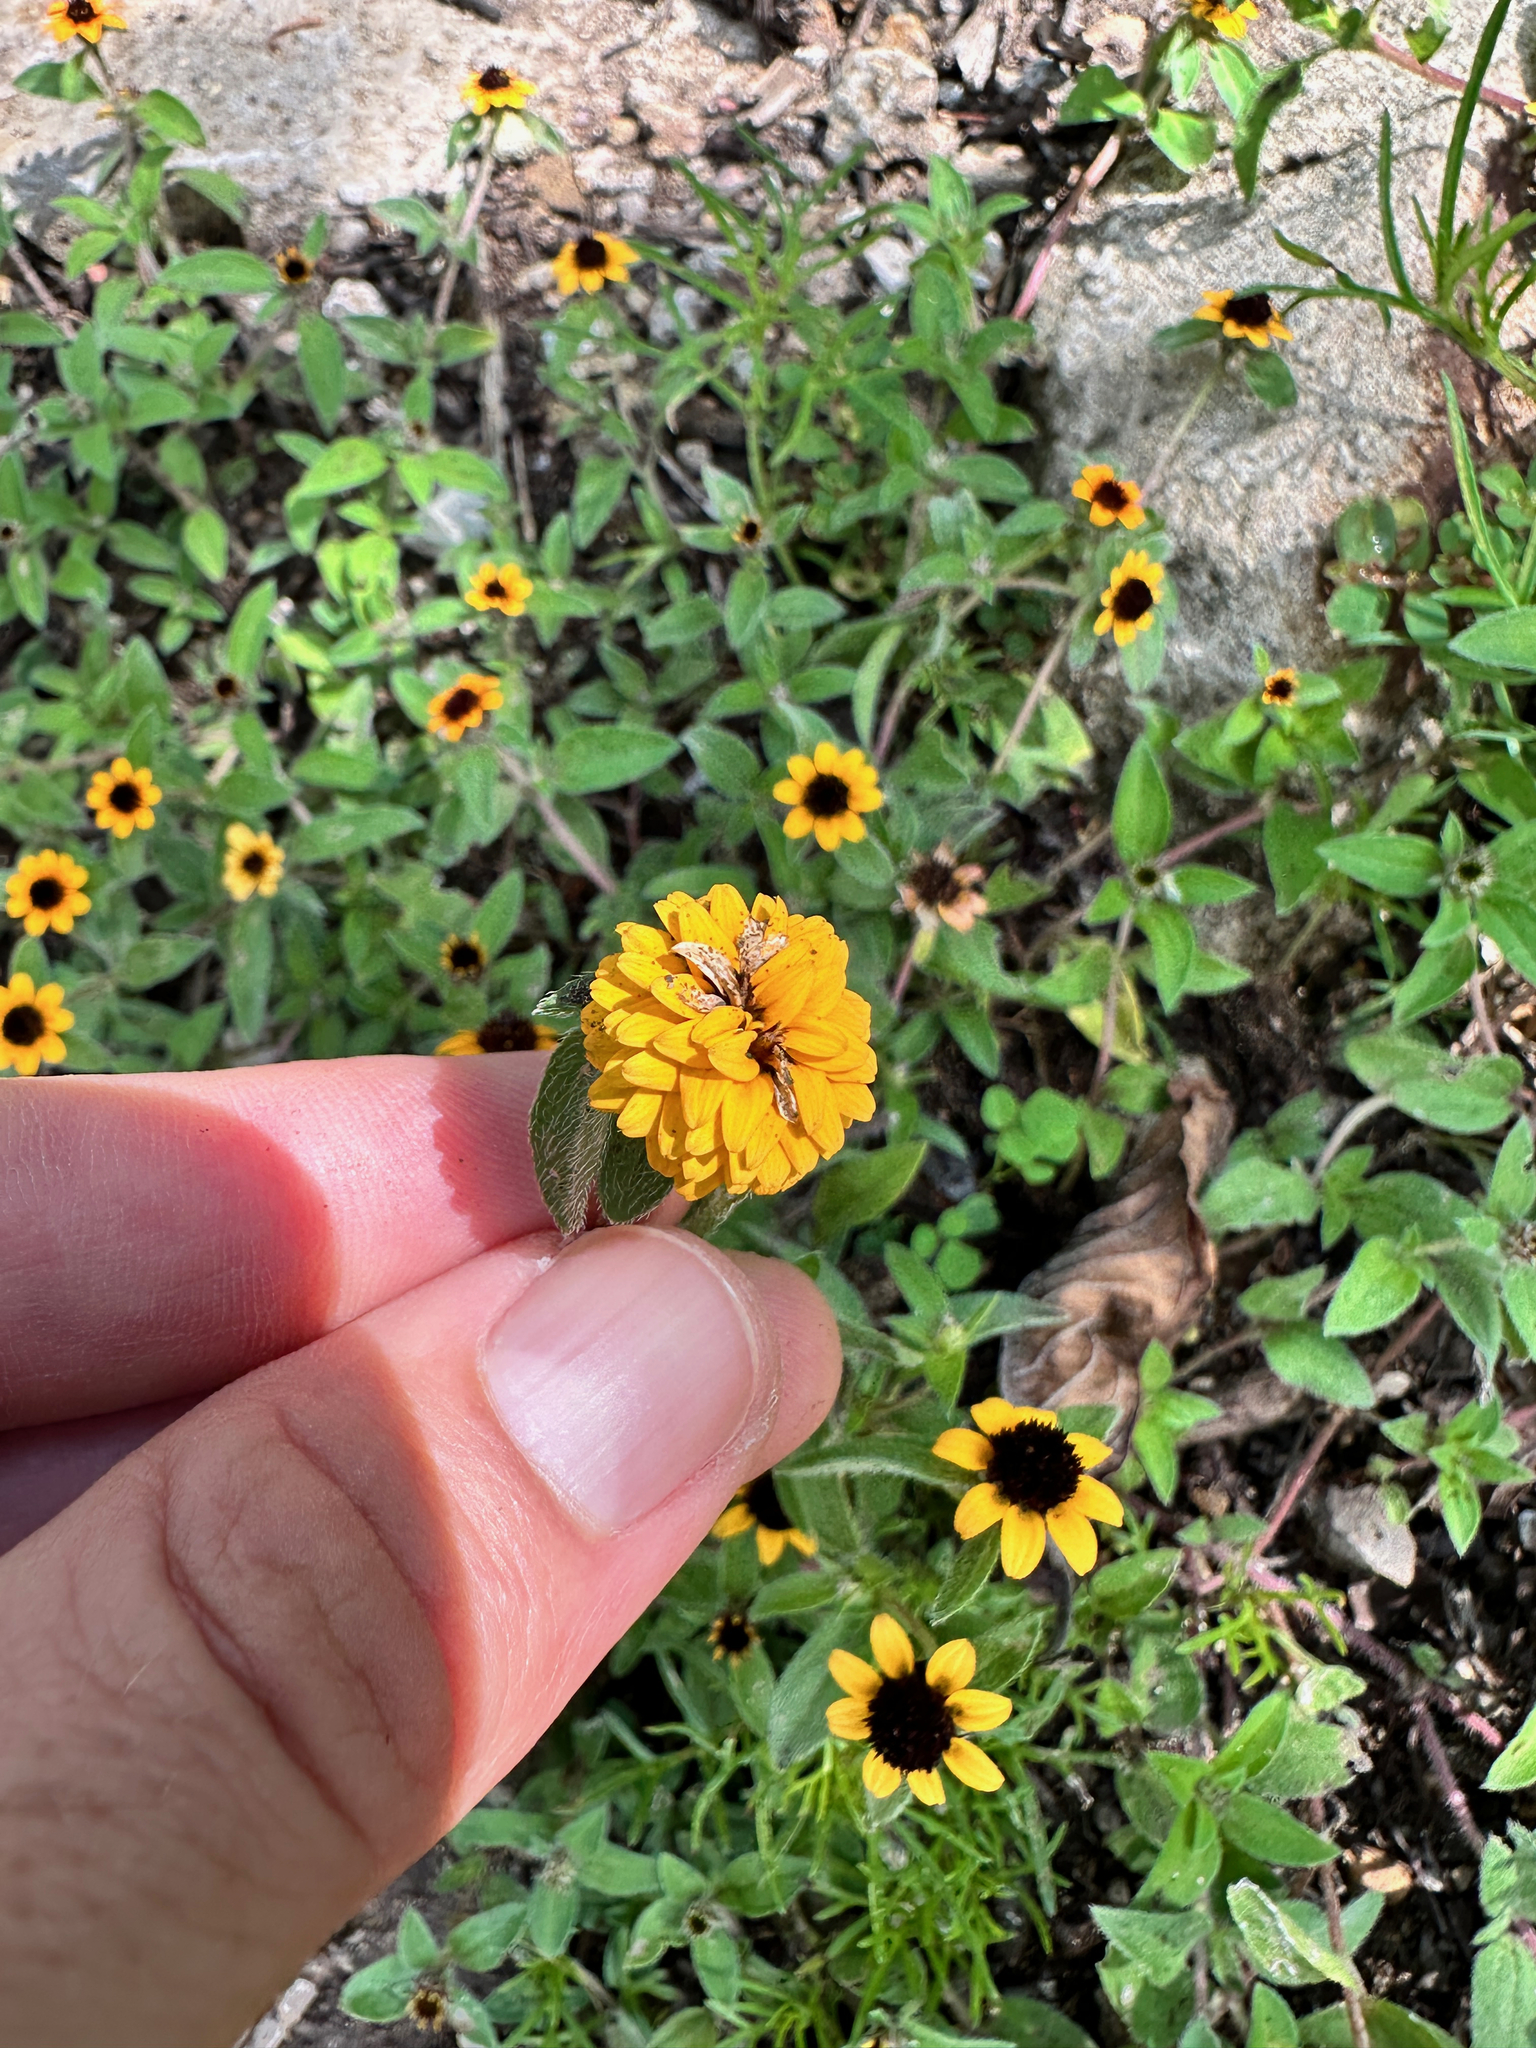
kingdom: Plantae
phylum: Tracheophyta
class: Magnoliopsida
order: Asterales
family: Asteraceae
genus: Sanvitalia
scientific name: Sanvitalia procumbens
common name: Mexican creeping zinnia
